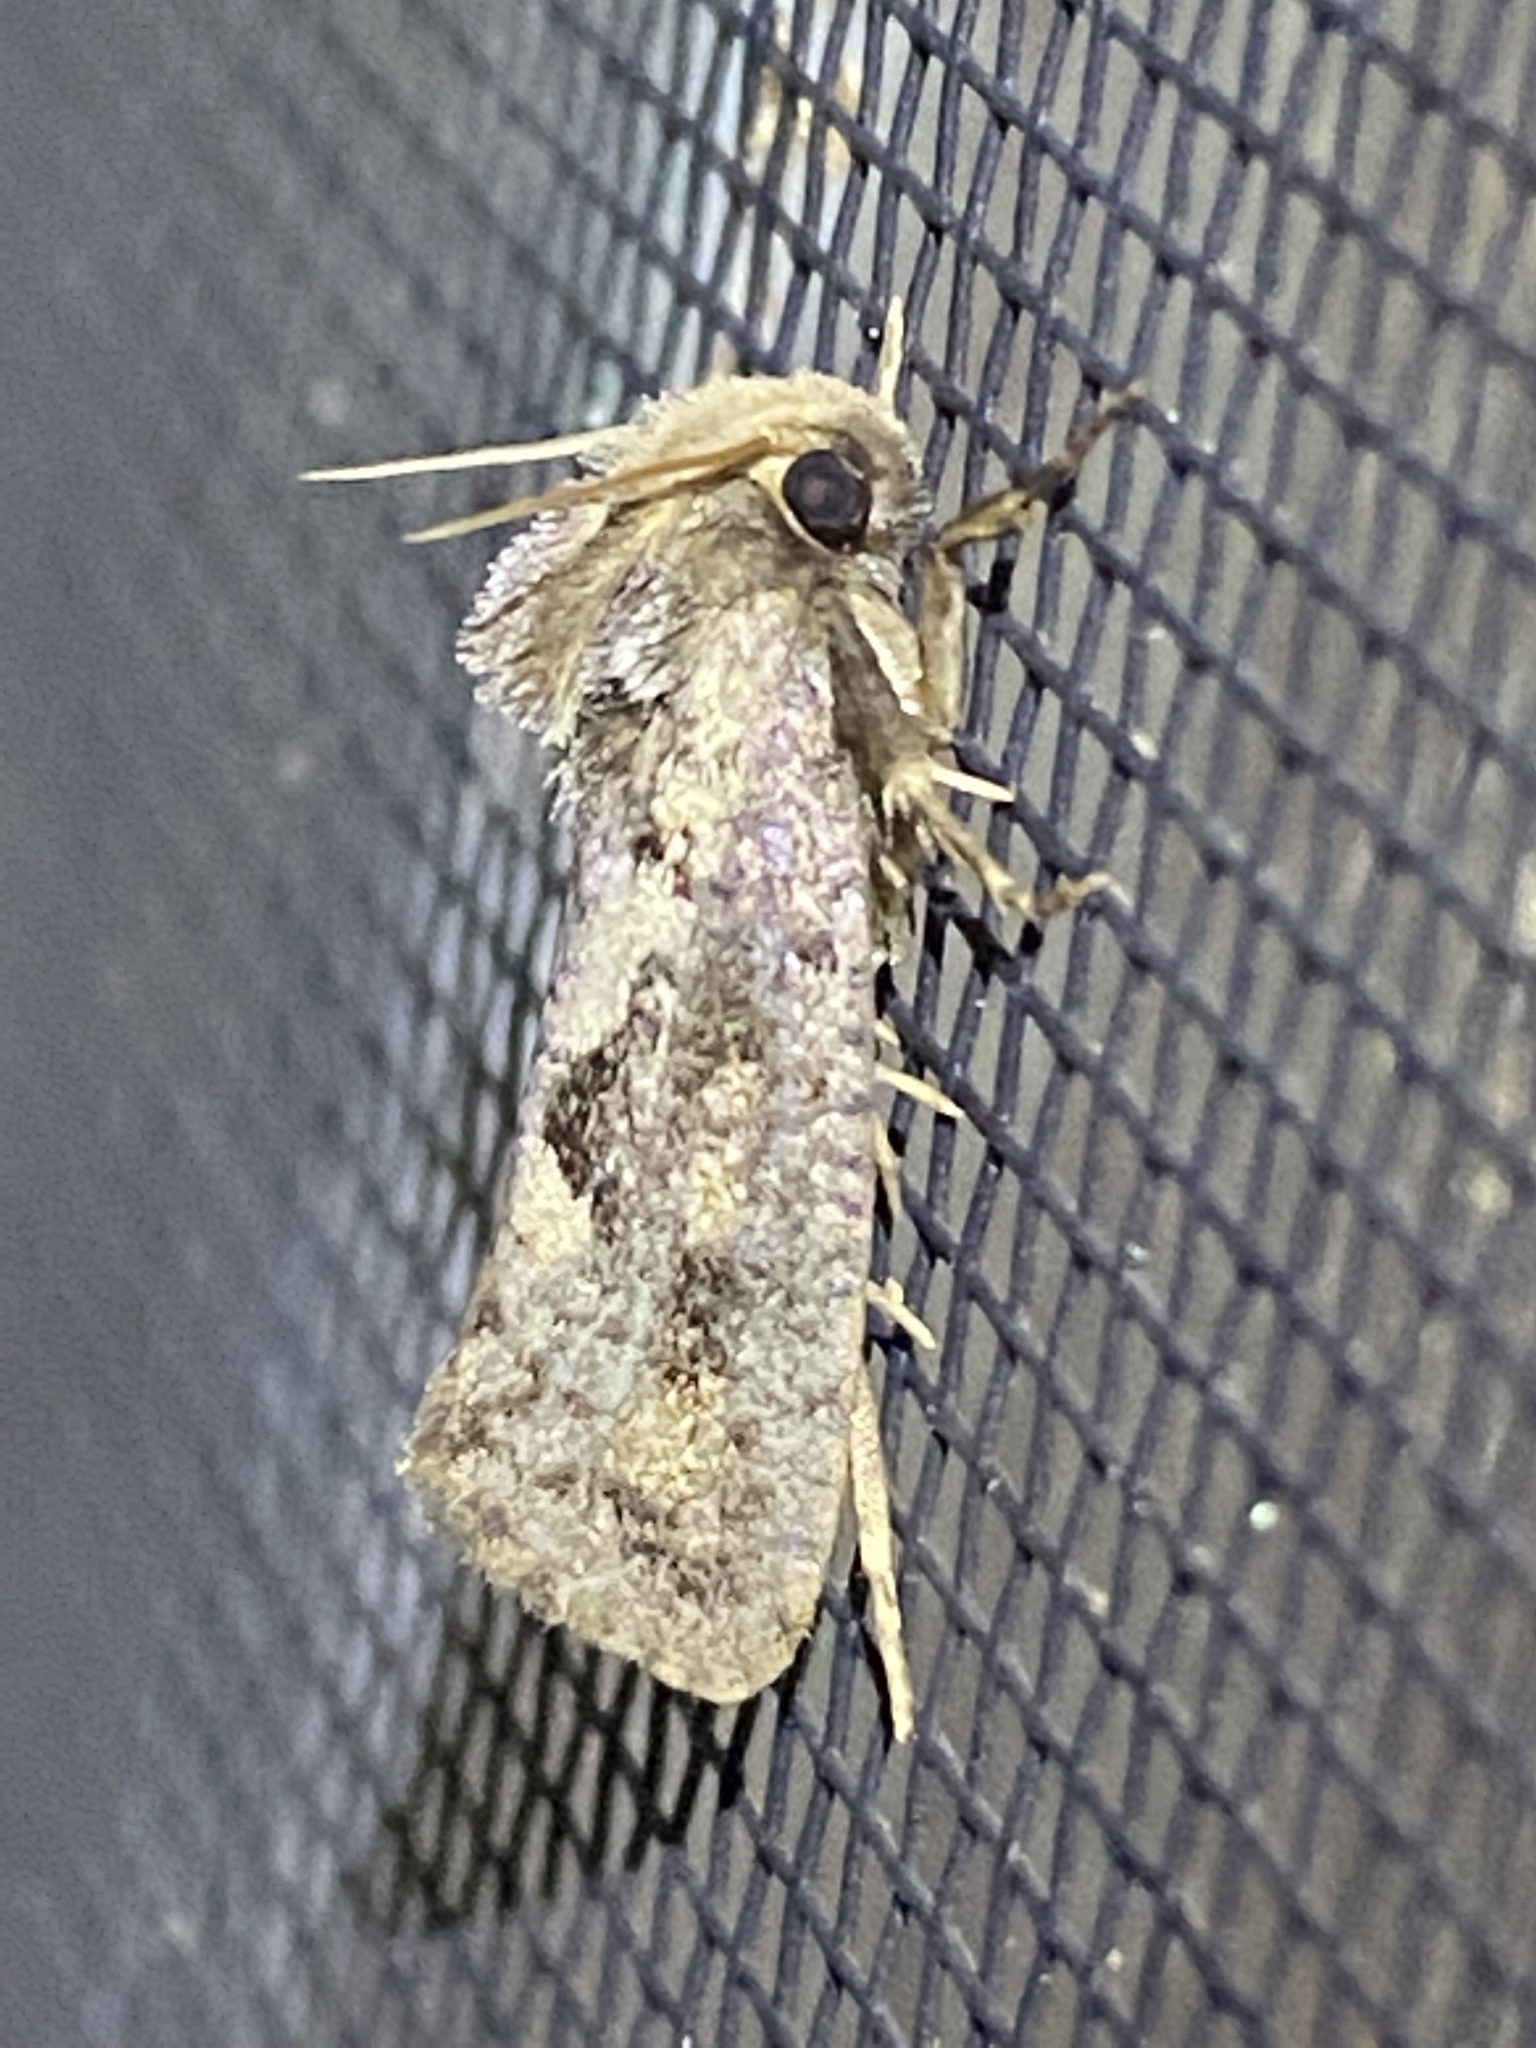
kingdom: Animalia
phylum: Arthropoda
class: Insecta
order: Lepidoptera
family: Tineidae
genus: Acrolophus
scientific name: Acrolophus popeanella
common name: Clemens' grass tubeworm moth
